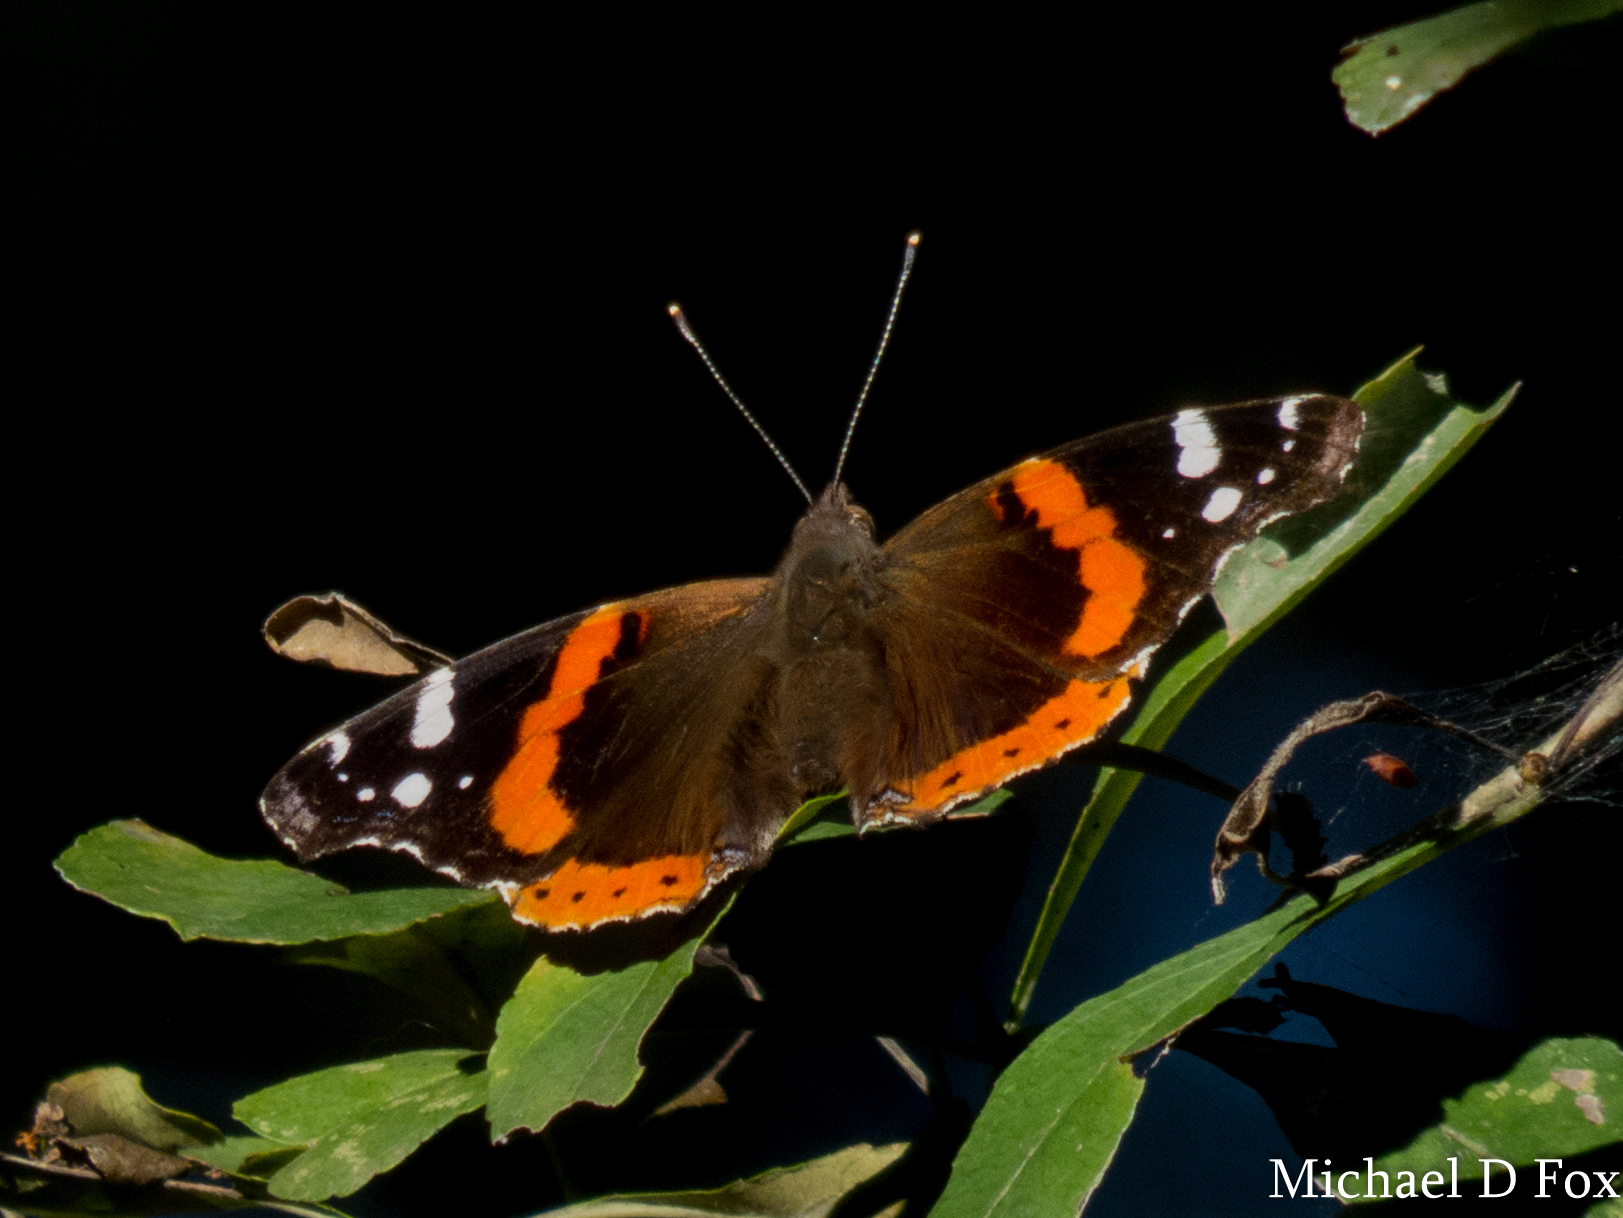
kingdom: Animalia
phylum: Arthropoda
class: Insecta
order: Lepidoptera
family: Nymphalidae
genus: Vanessa
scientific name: Vanessa atalanta
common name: Red admiral
